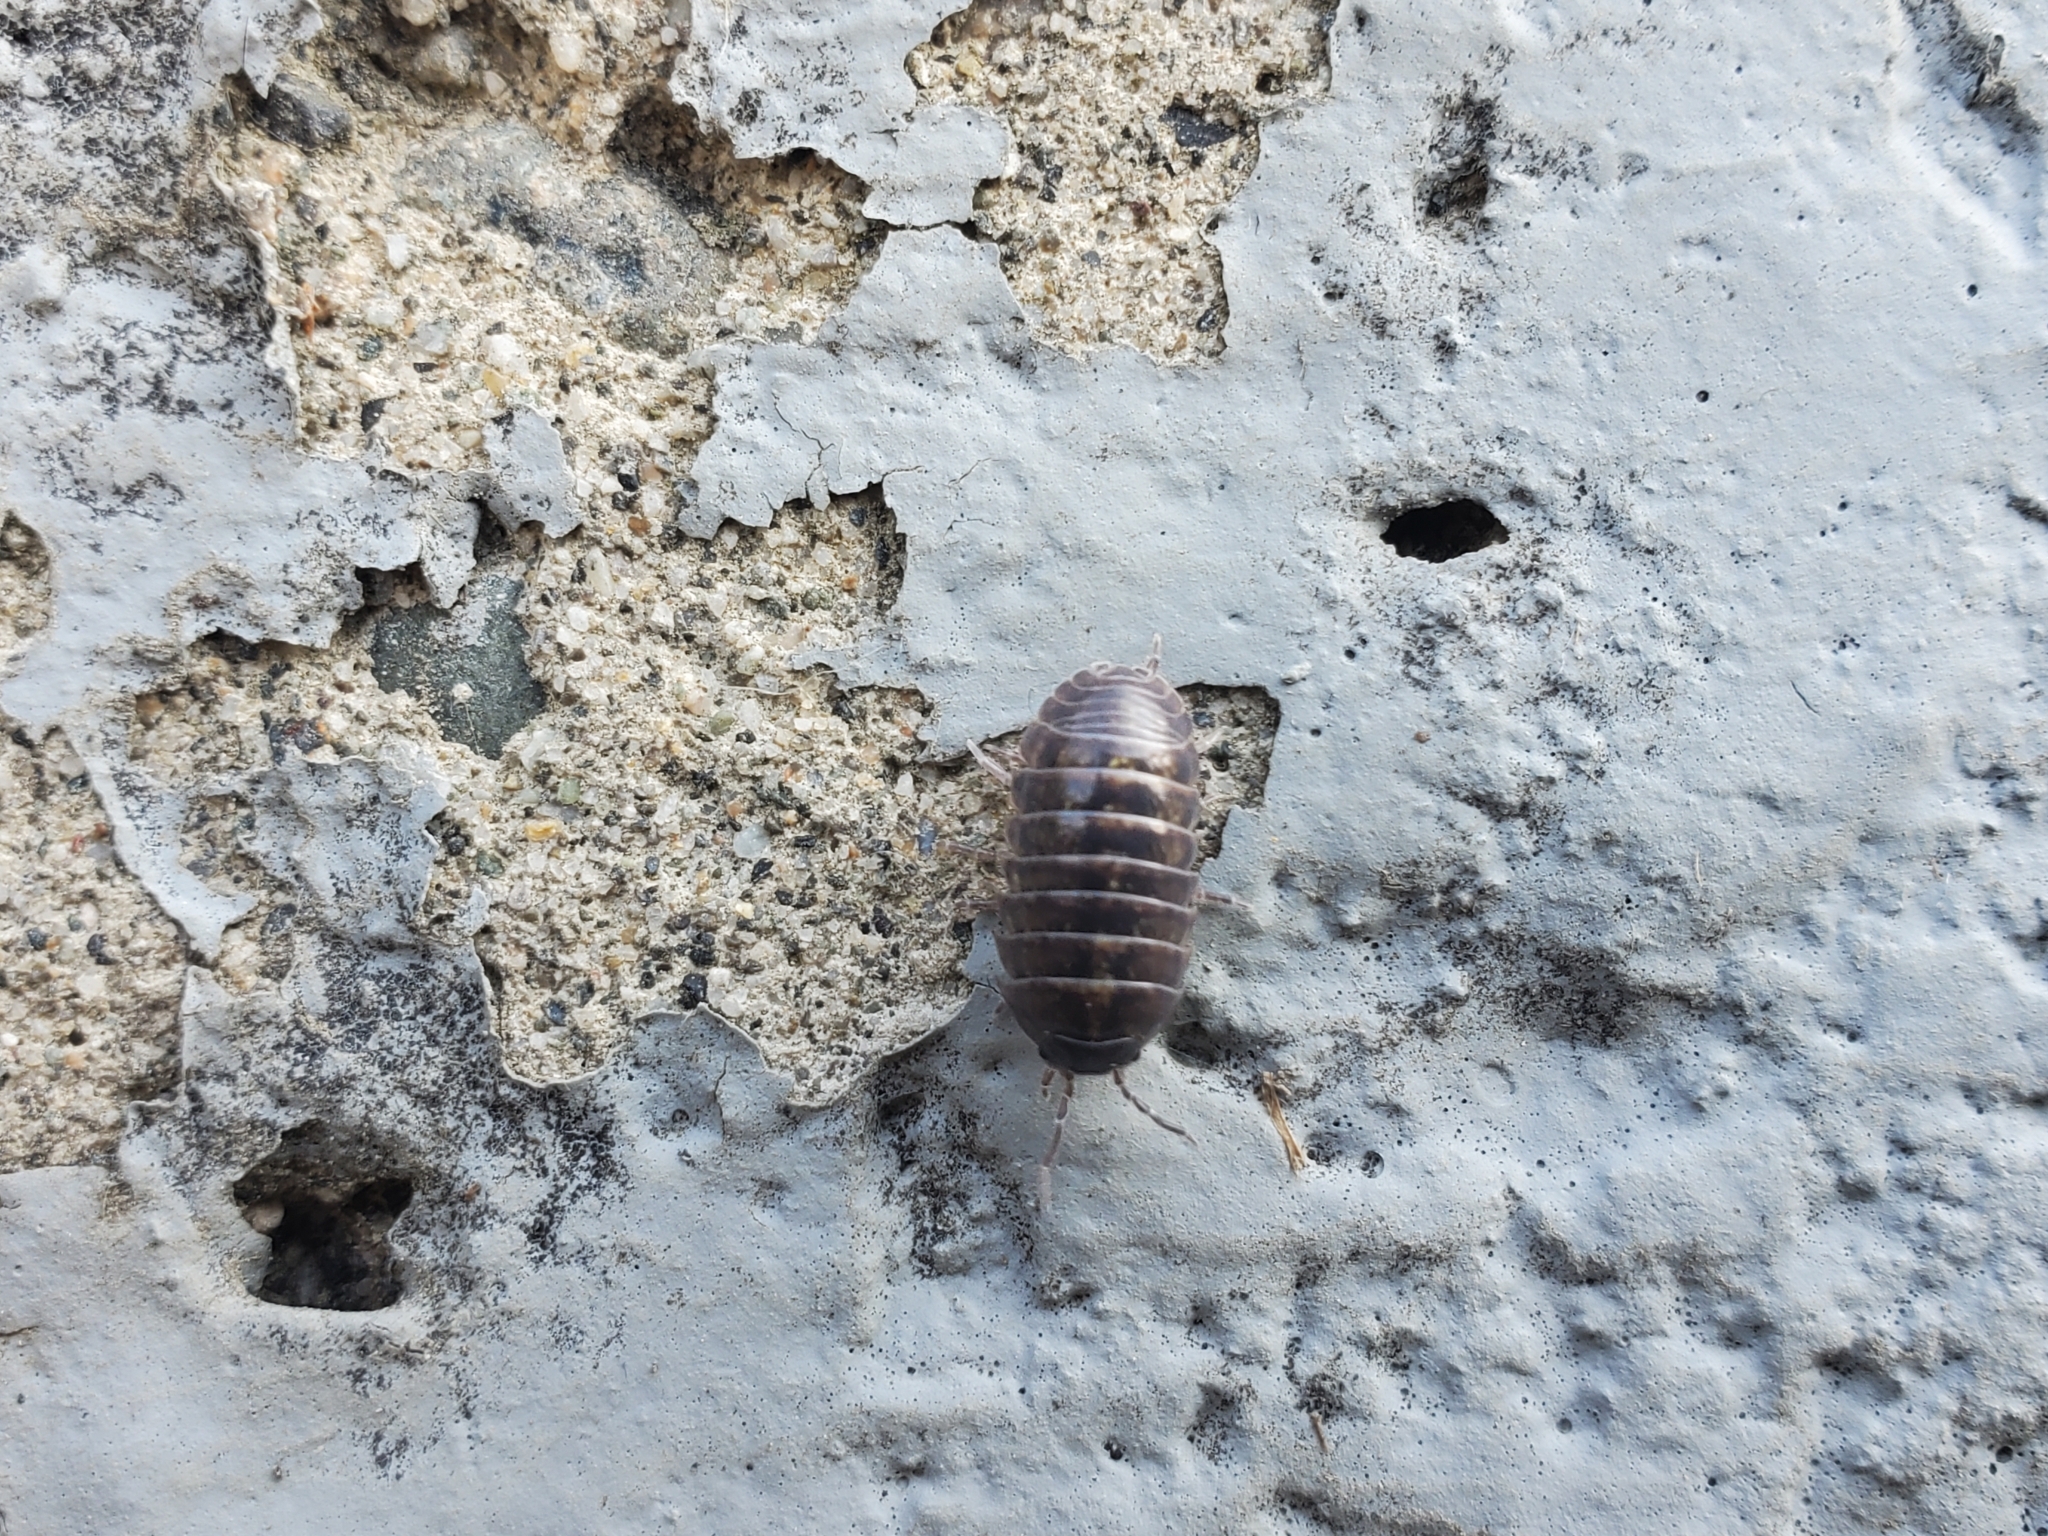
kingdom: Animalia
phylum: Arthropoda
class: Malacostraca
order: Isopoda
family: Armadillidiidae
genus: Armadillidium
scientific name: Armadillidium vulgare
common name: Common pill woodlouse
